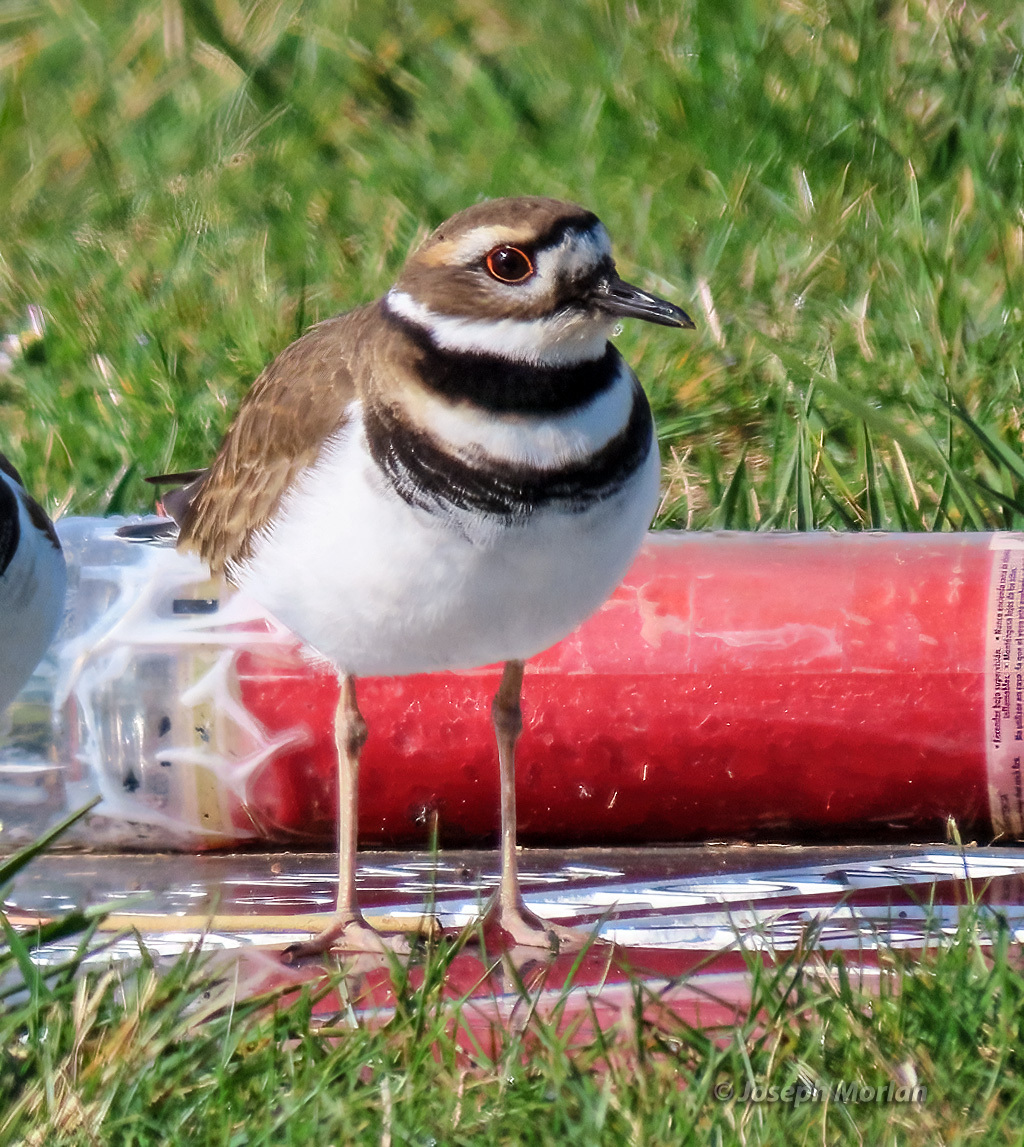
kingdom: Animalia
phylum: Chordata
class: Aves
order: Charadriiformes
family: Charadriidae
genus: Charadrius
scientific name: Charadrius vociferus
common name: Killdeer
